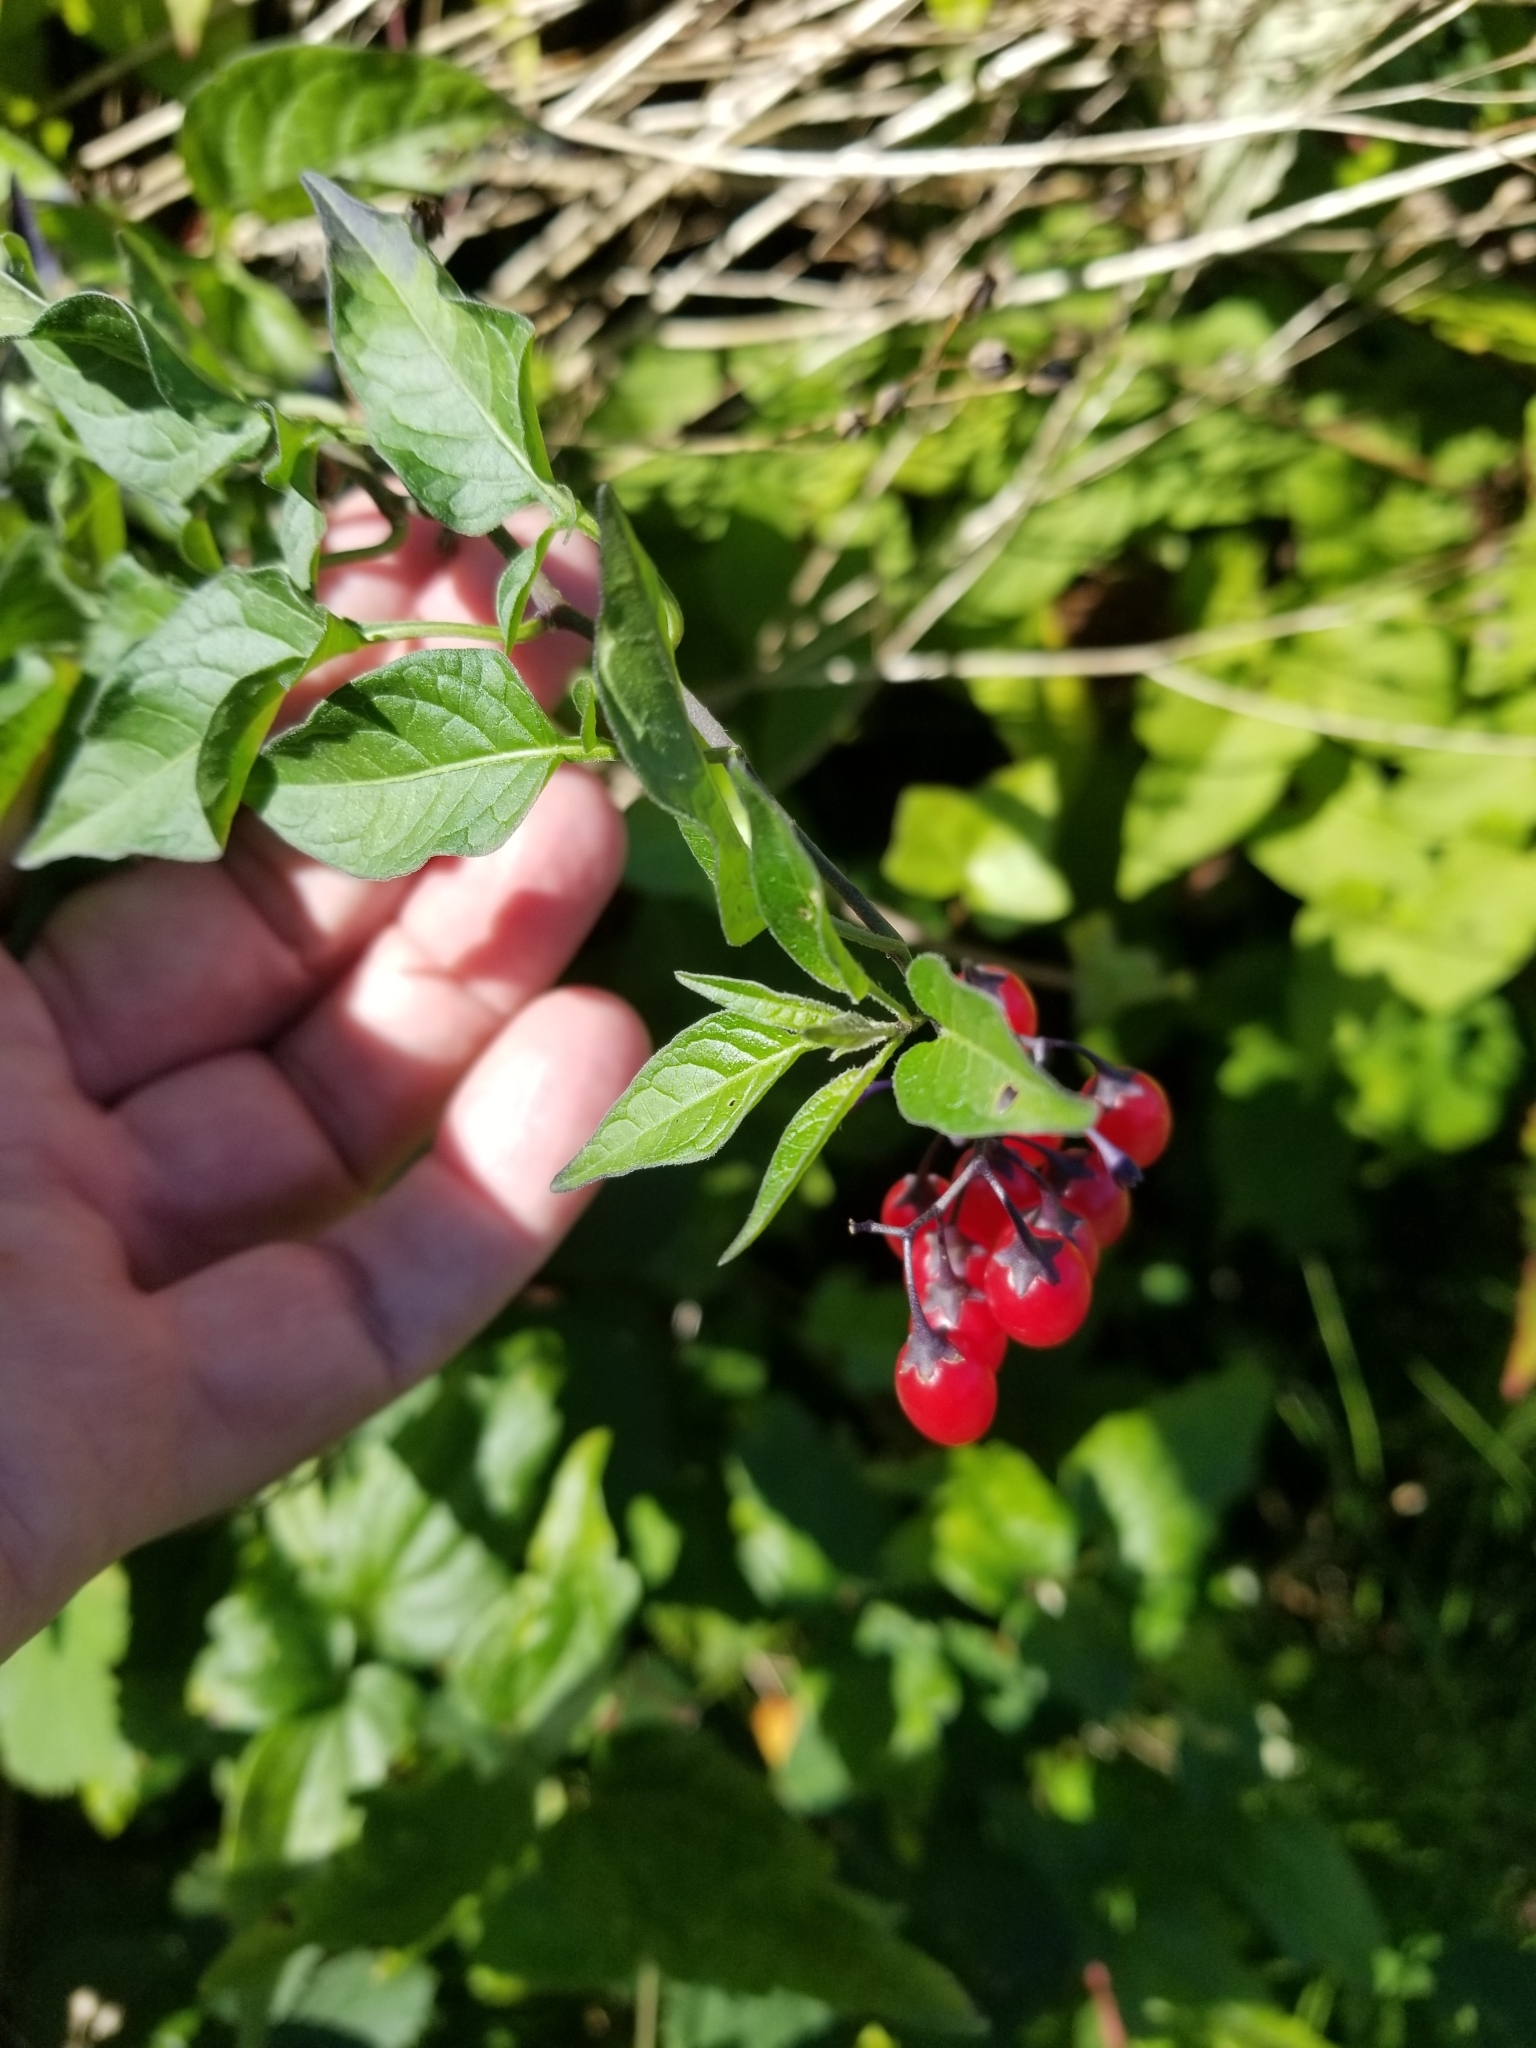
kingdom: Plantae
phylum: Tracheophyta
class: Magnoliopsida
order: Solanales
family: Solanaceae
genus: Solanum
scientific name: Solanum dulcamara
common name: Climbing nightshade
